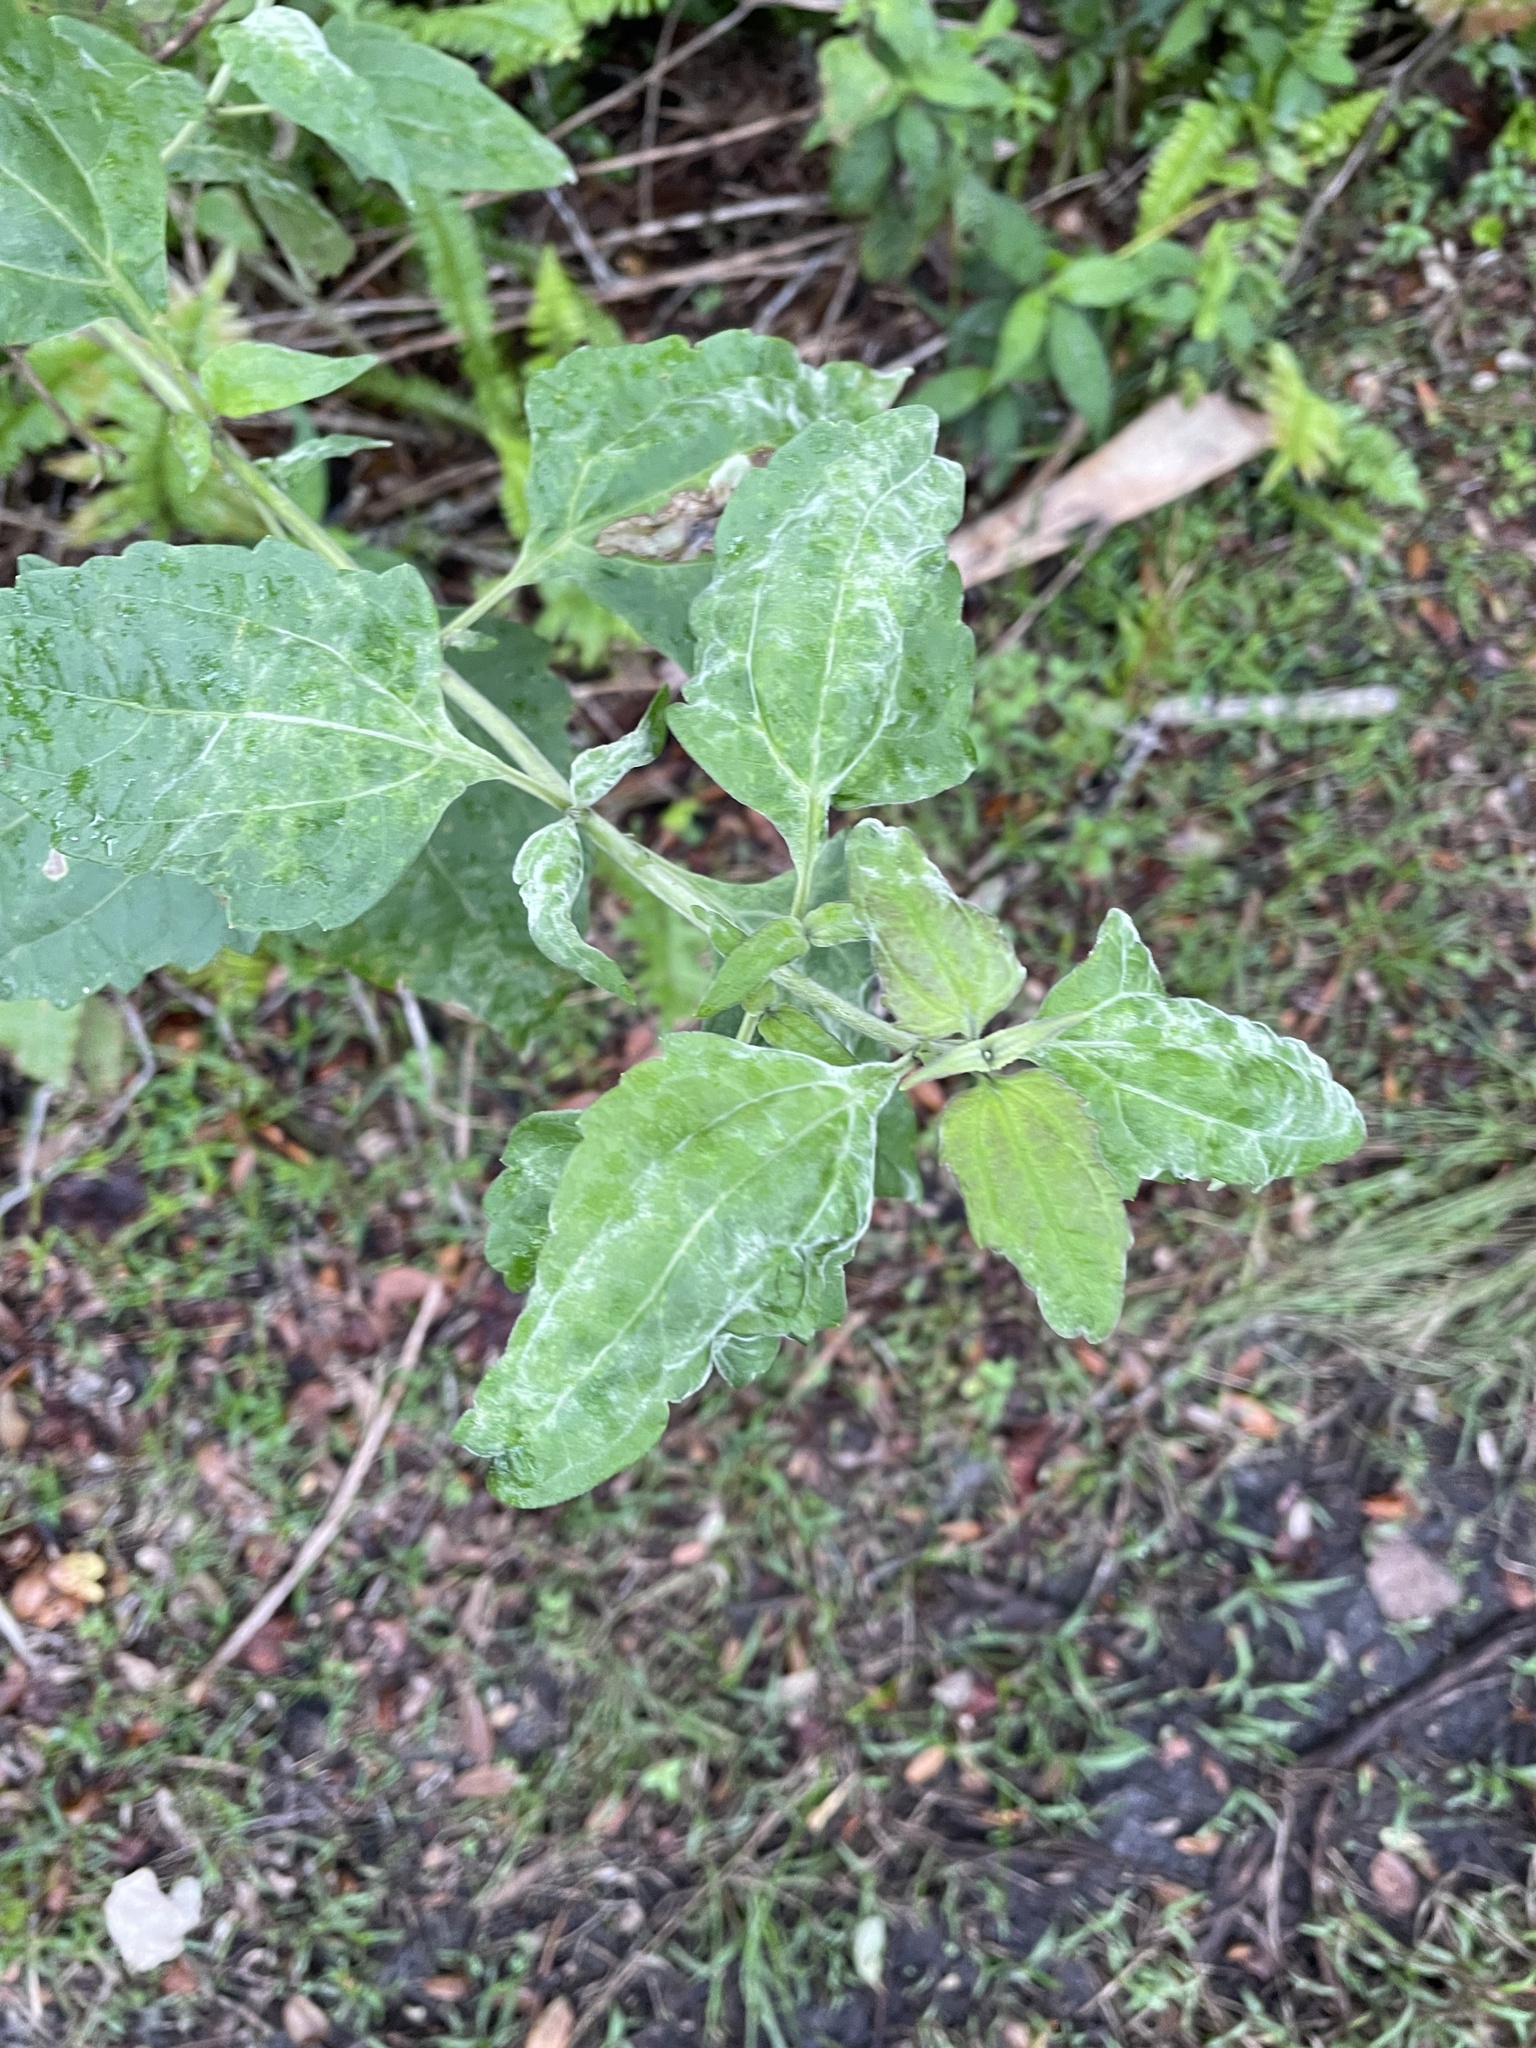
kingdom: Plantae
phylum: Tracheophyta
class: Magnoliopsida
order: Asterales
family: Asteraceae
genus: Chromolaena
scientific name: Chromolaena odorata
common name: Siamweed
